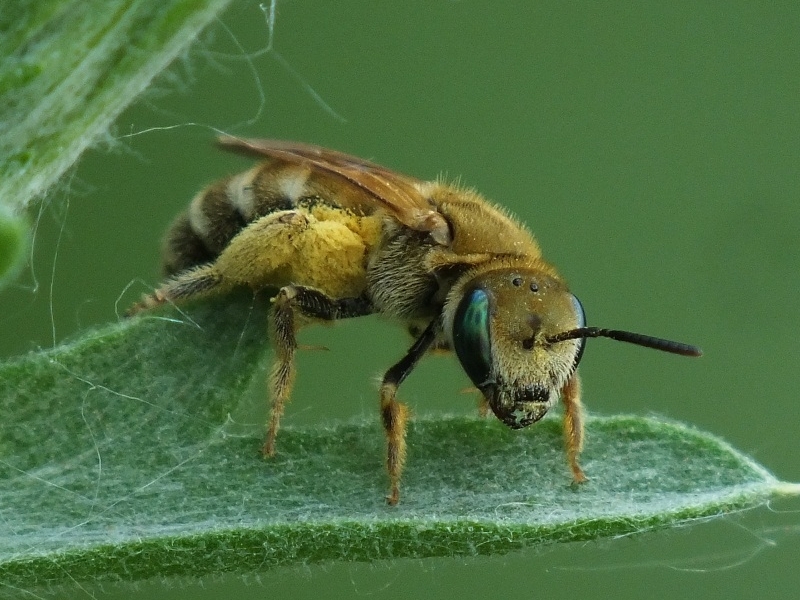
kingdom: Animalia
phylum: Arthropoda
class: Insecta
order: Hymenoptera
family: Halictidae
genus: Halictus
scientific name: Halictus subauratus
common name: Golden furrow bee
